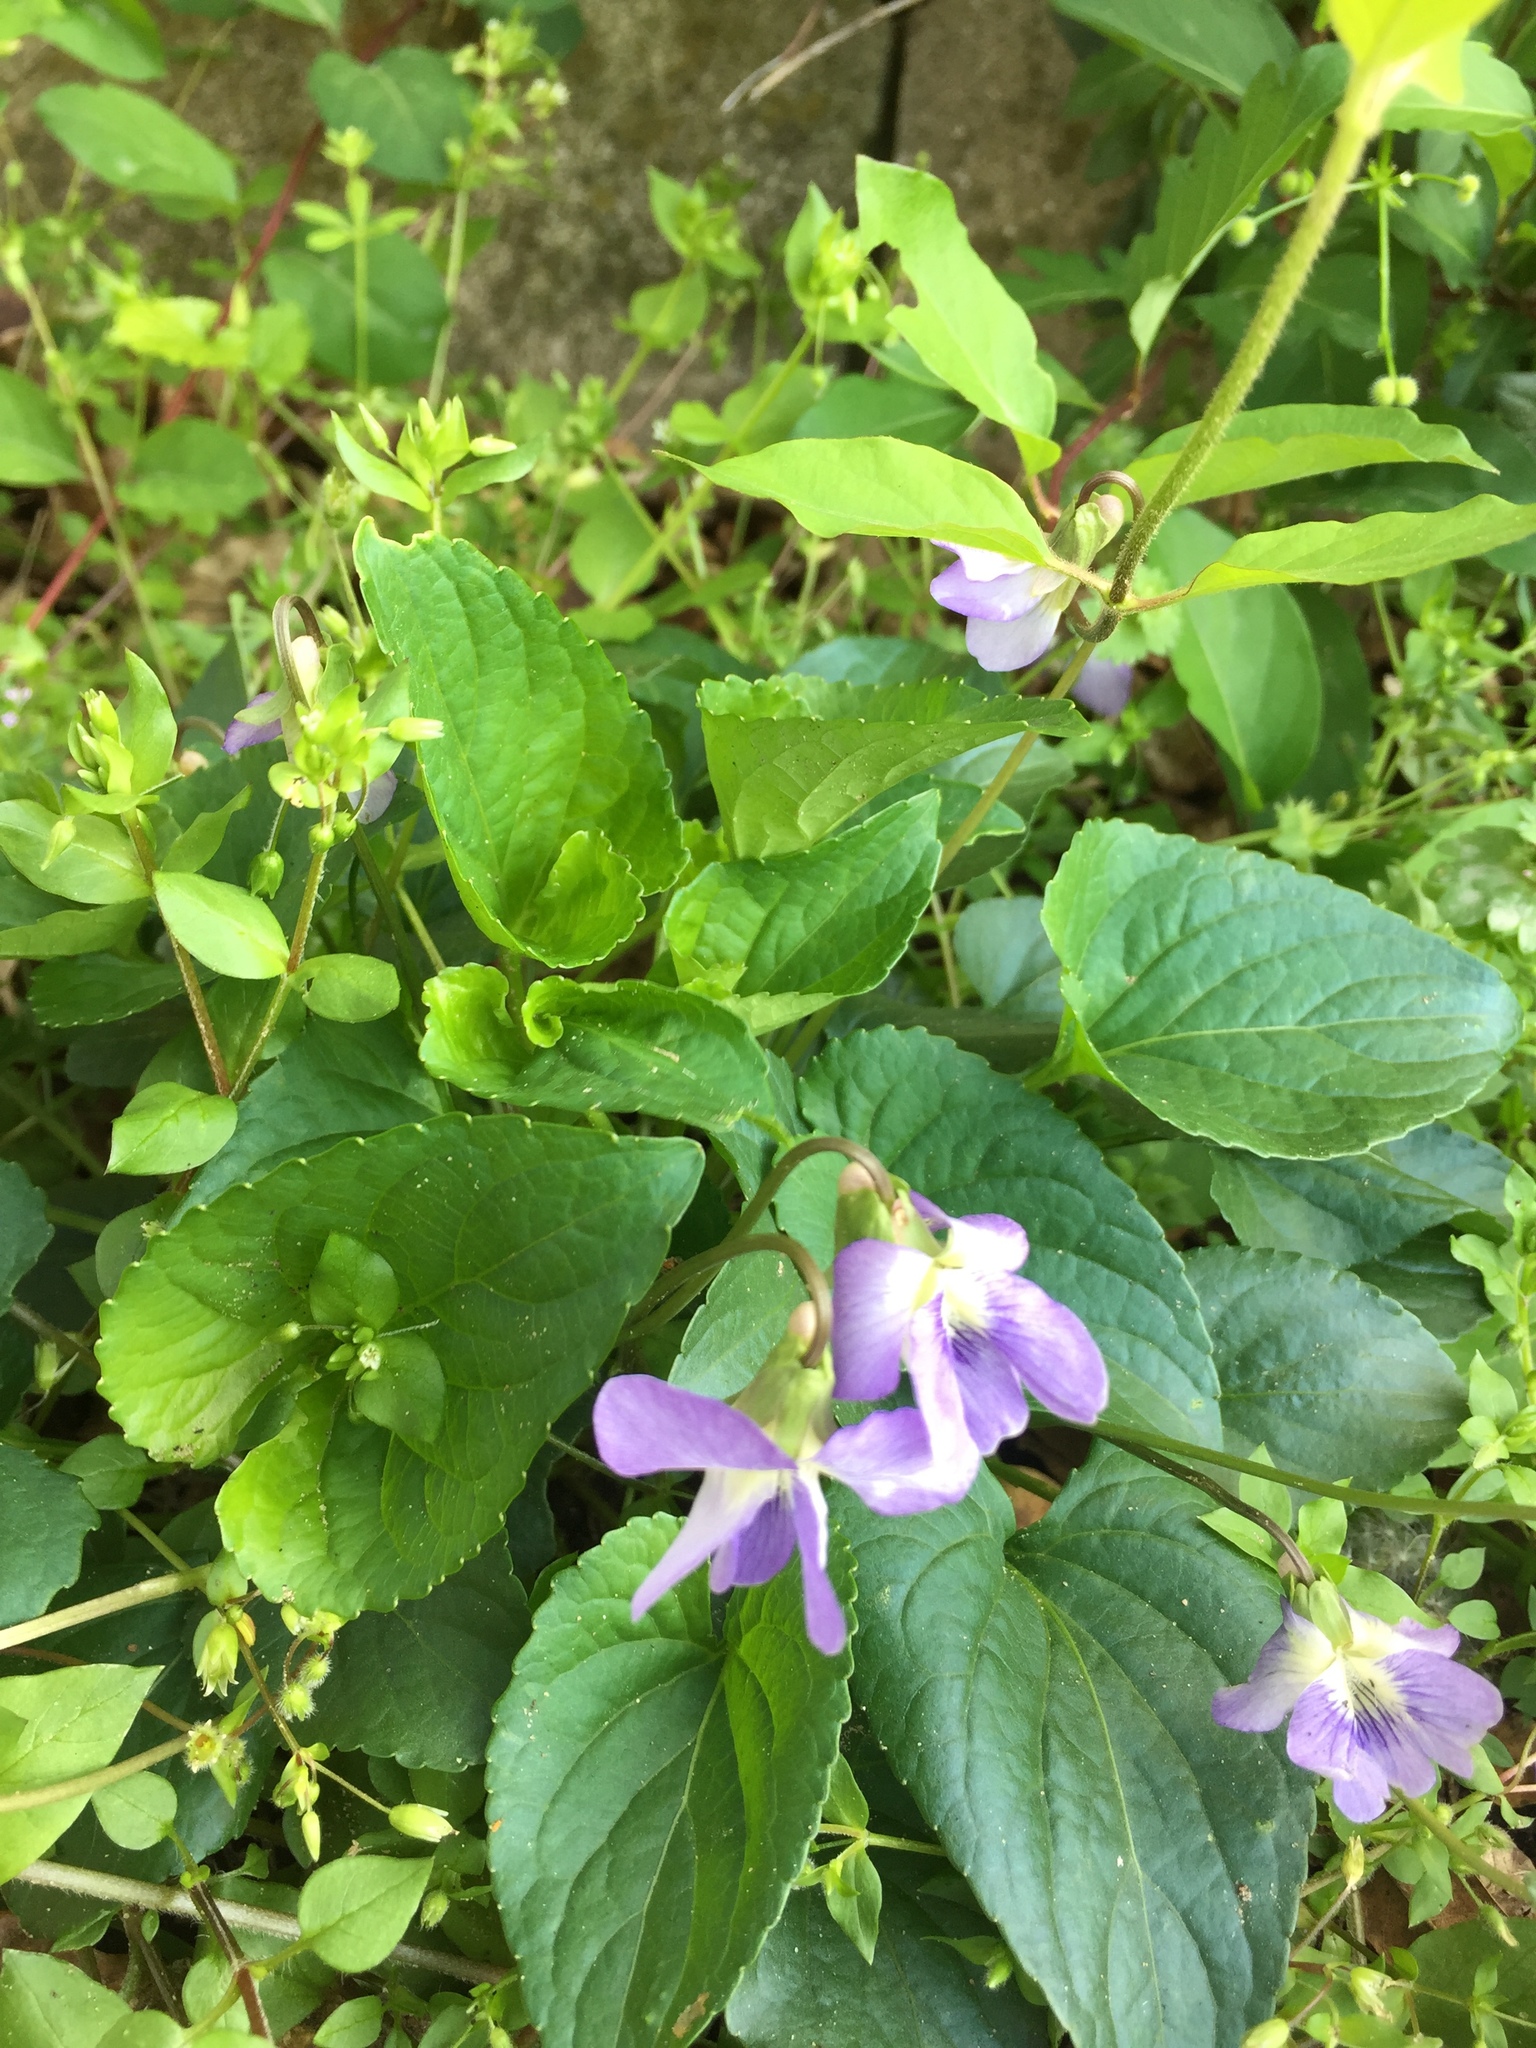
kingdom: Plantae
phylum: Tracheophyta
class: Magnoliopsida
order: Malpighiales
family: Violaceae
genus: Viola
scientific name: Viola sororia
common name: Dooryard violet
